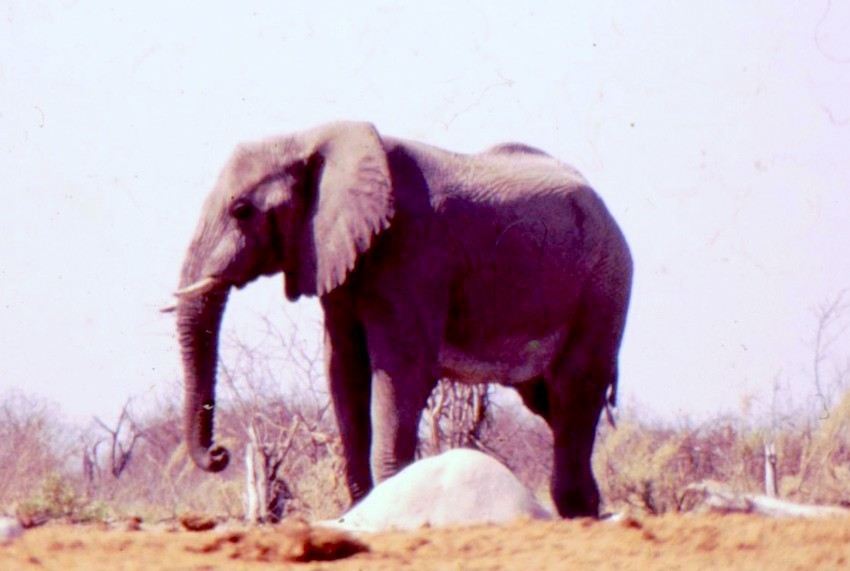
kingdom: Animalia
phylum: Chordata
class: Mammalia
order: Proboscidea
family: Elephantidae
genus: Loxodonta
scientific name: Loxodonta africana
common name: African elephant
